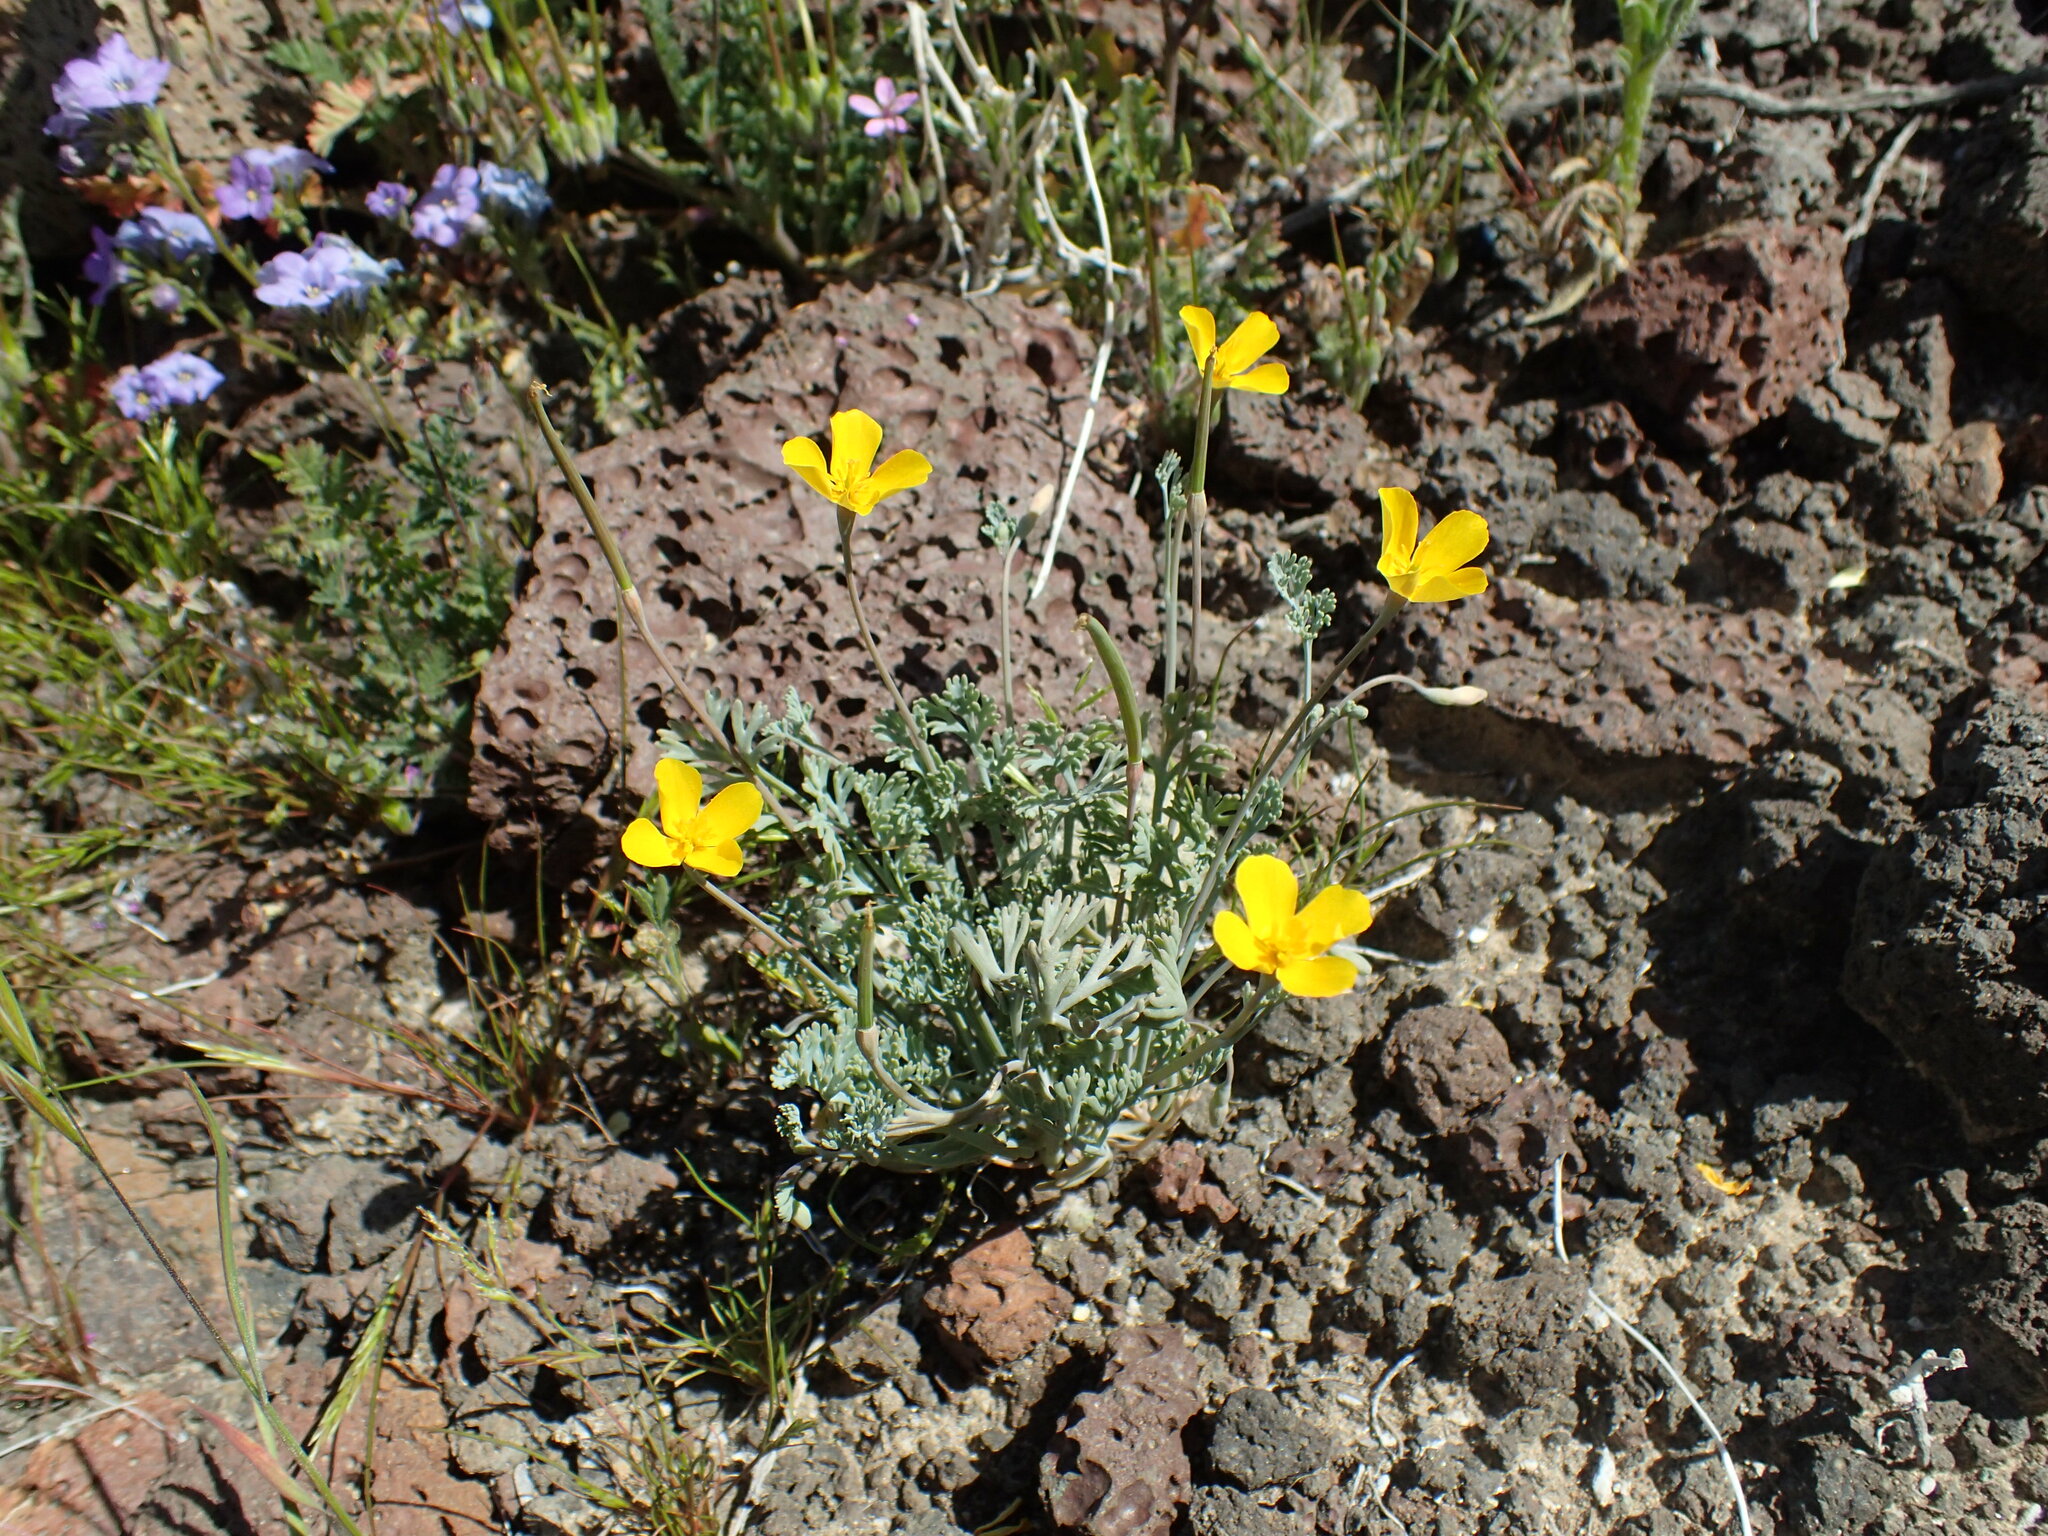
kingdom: Plantae
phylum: Tracheophyta
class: Magnoliopsida
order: Ranunculales
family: Papaveraceae
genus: Eschscholzia
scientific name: Eschscholzia minutiflora
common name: Small-flower california-poppy
